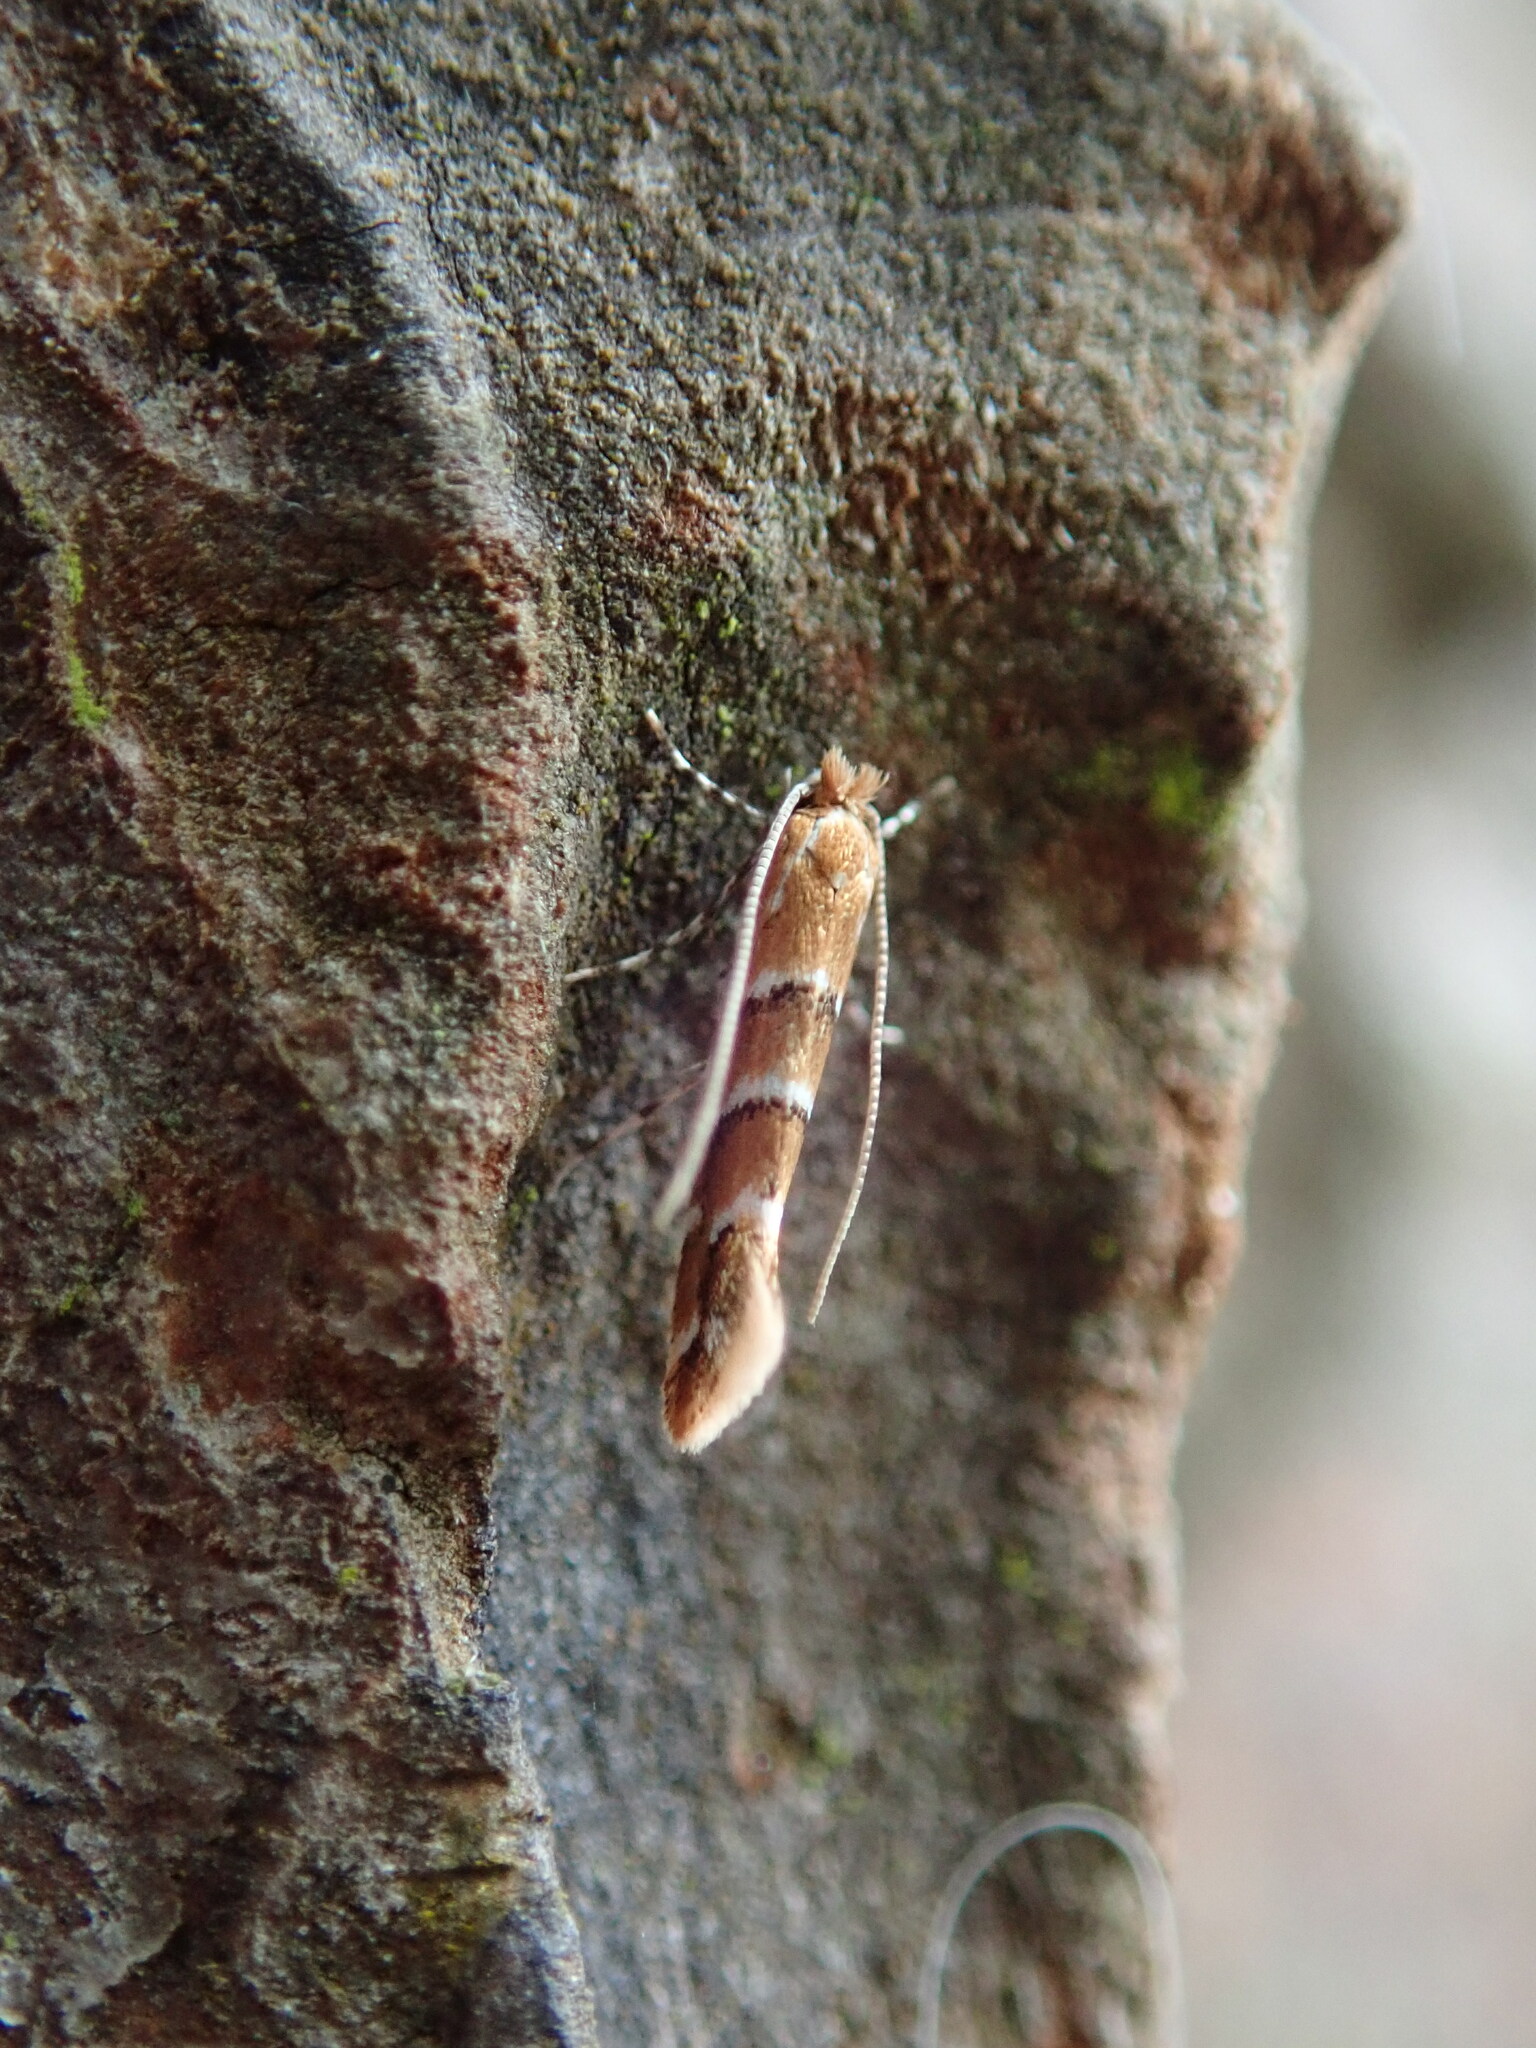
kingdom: Animalia
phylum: Arthropoda
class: Insecta
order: Lepidoptera
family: Gracillariidae
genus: Cameraria
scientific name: Cameraria ohridella
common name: Horse-chestnut leaf-miner
